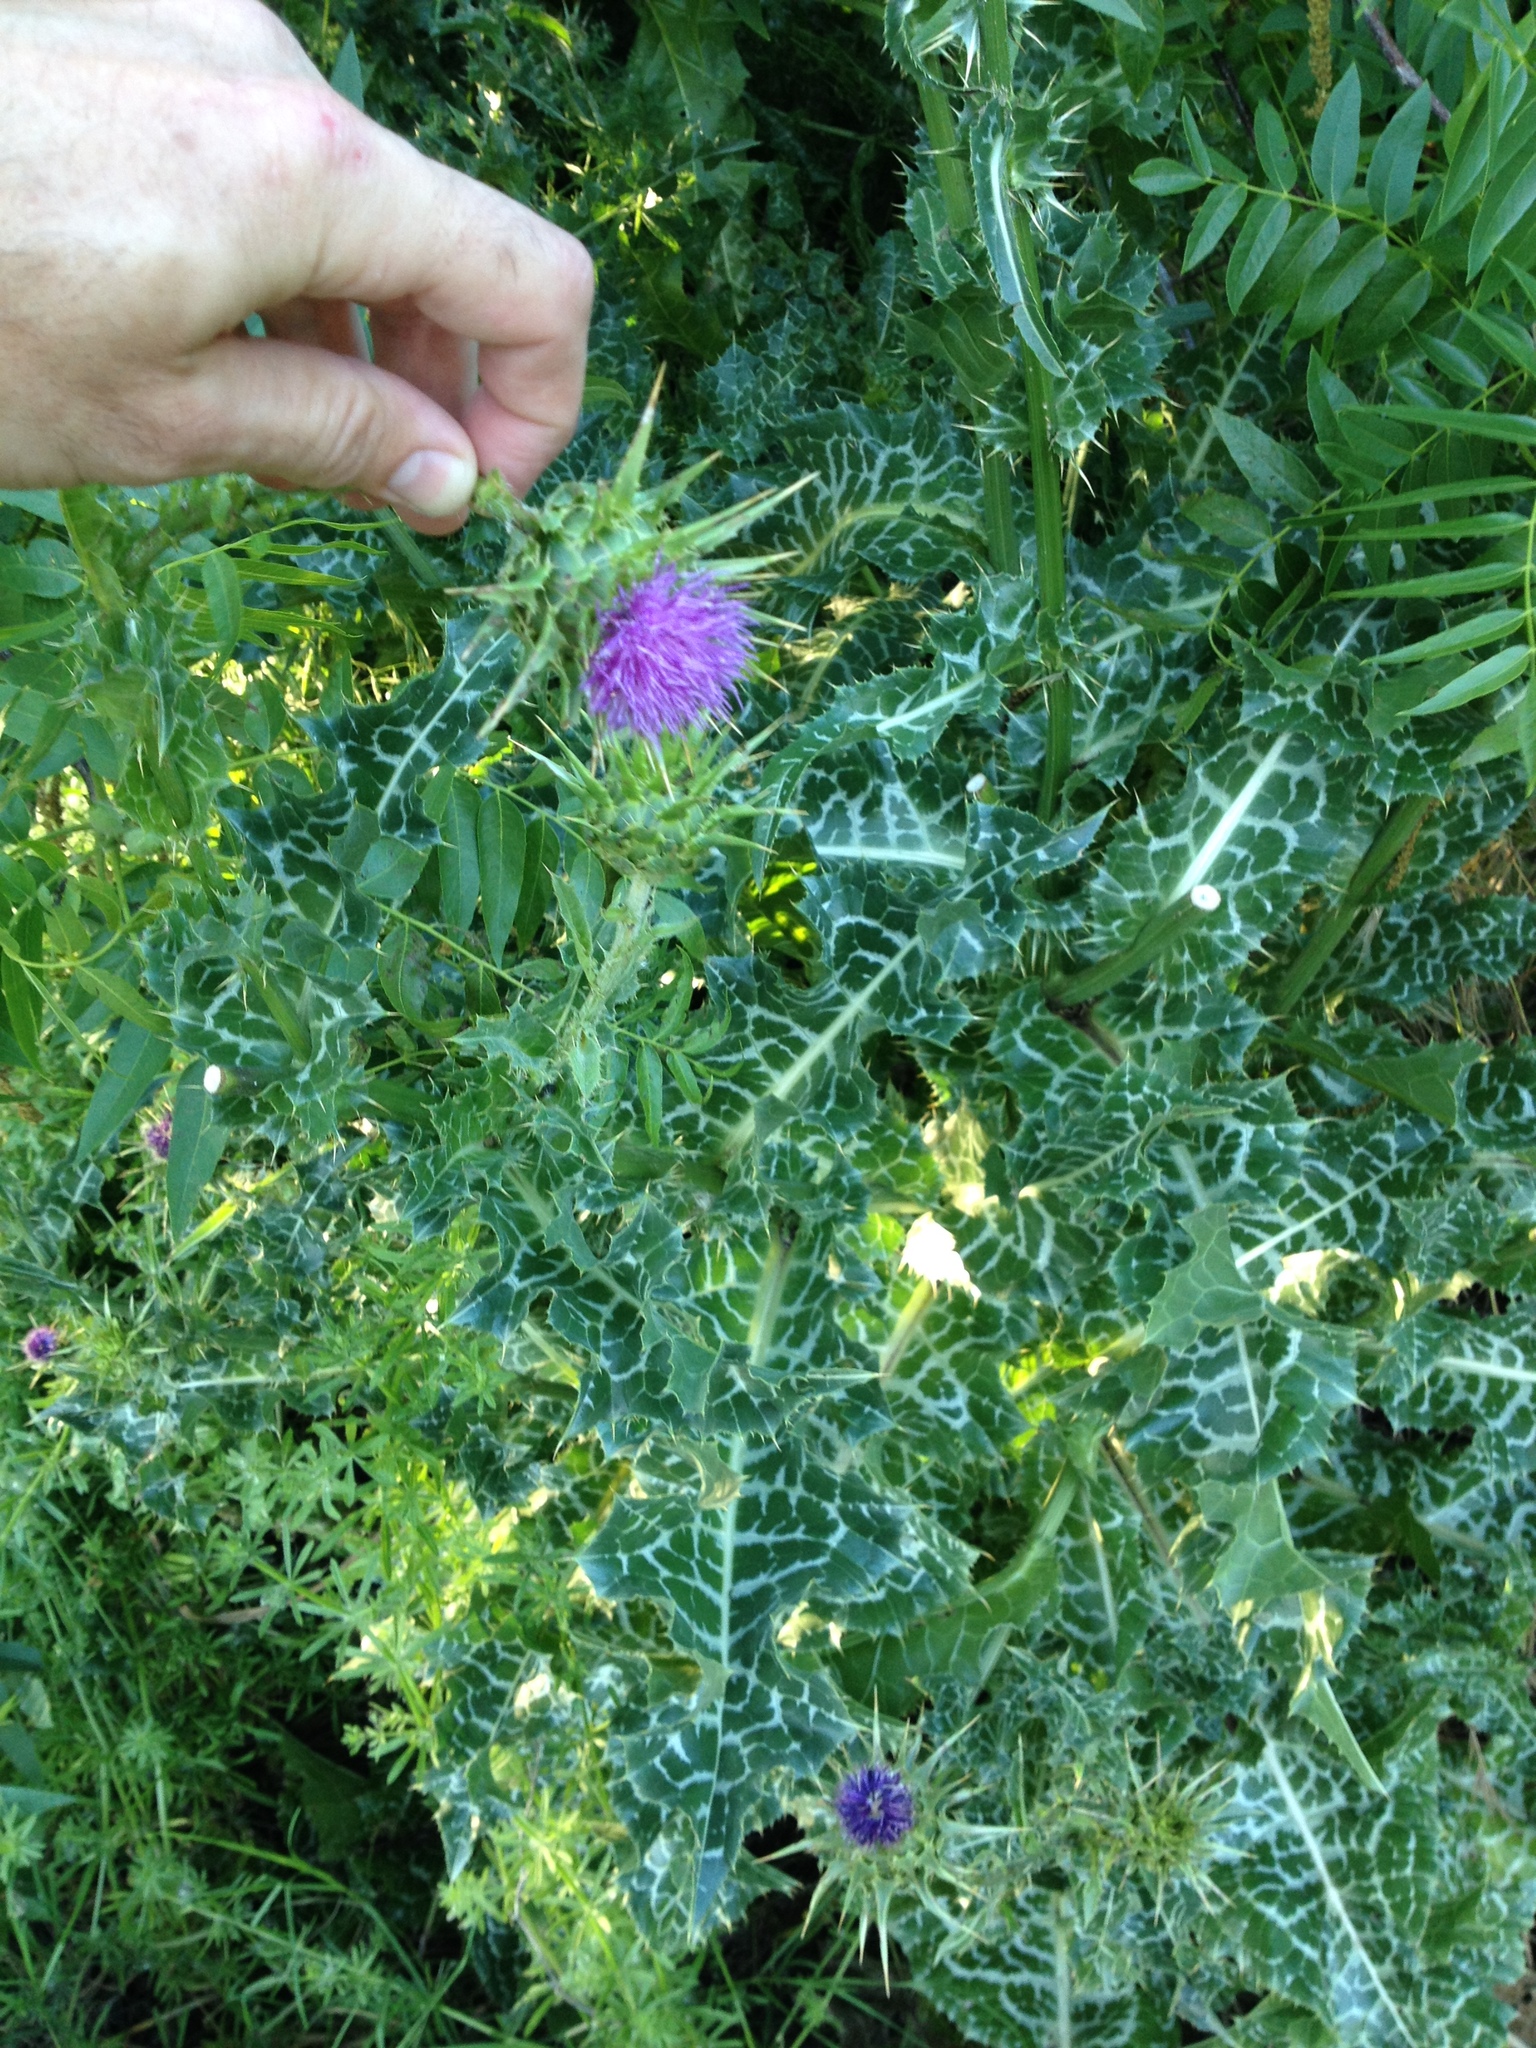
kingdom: Plantae
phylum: Tracheophyta
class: Magnoliopsida
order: Asterales
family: Asteraceae
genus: Silybum
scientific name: Silybum marianum
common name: Milk thistle
